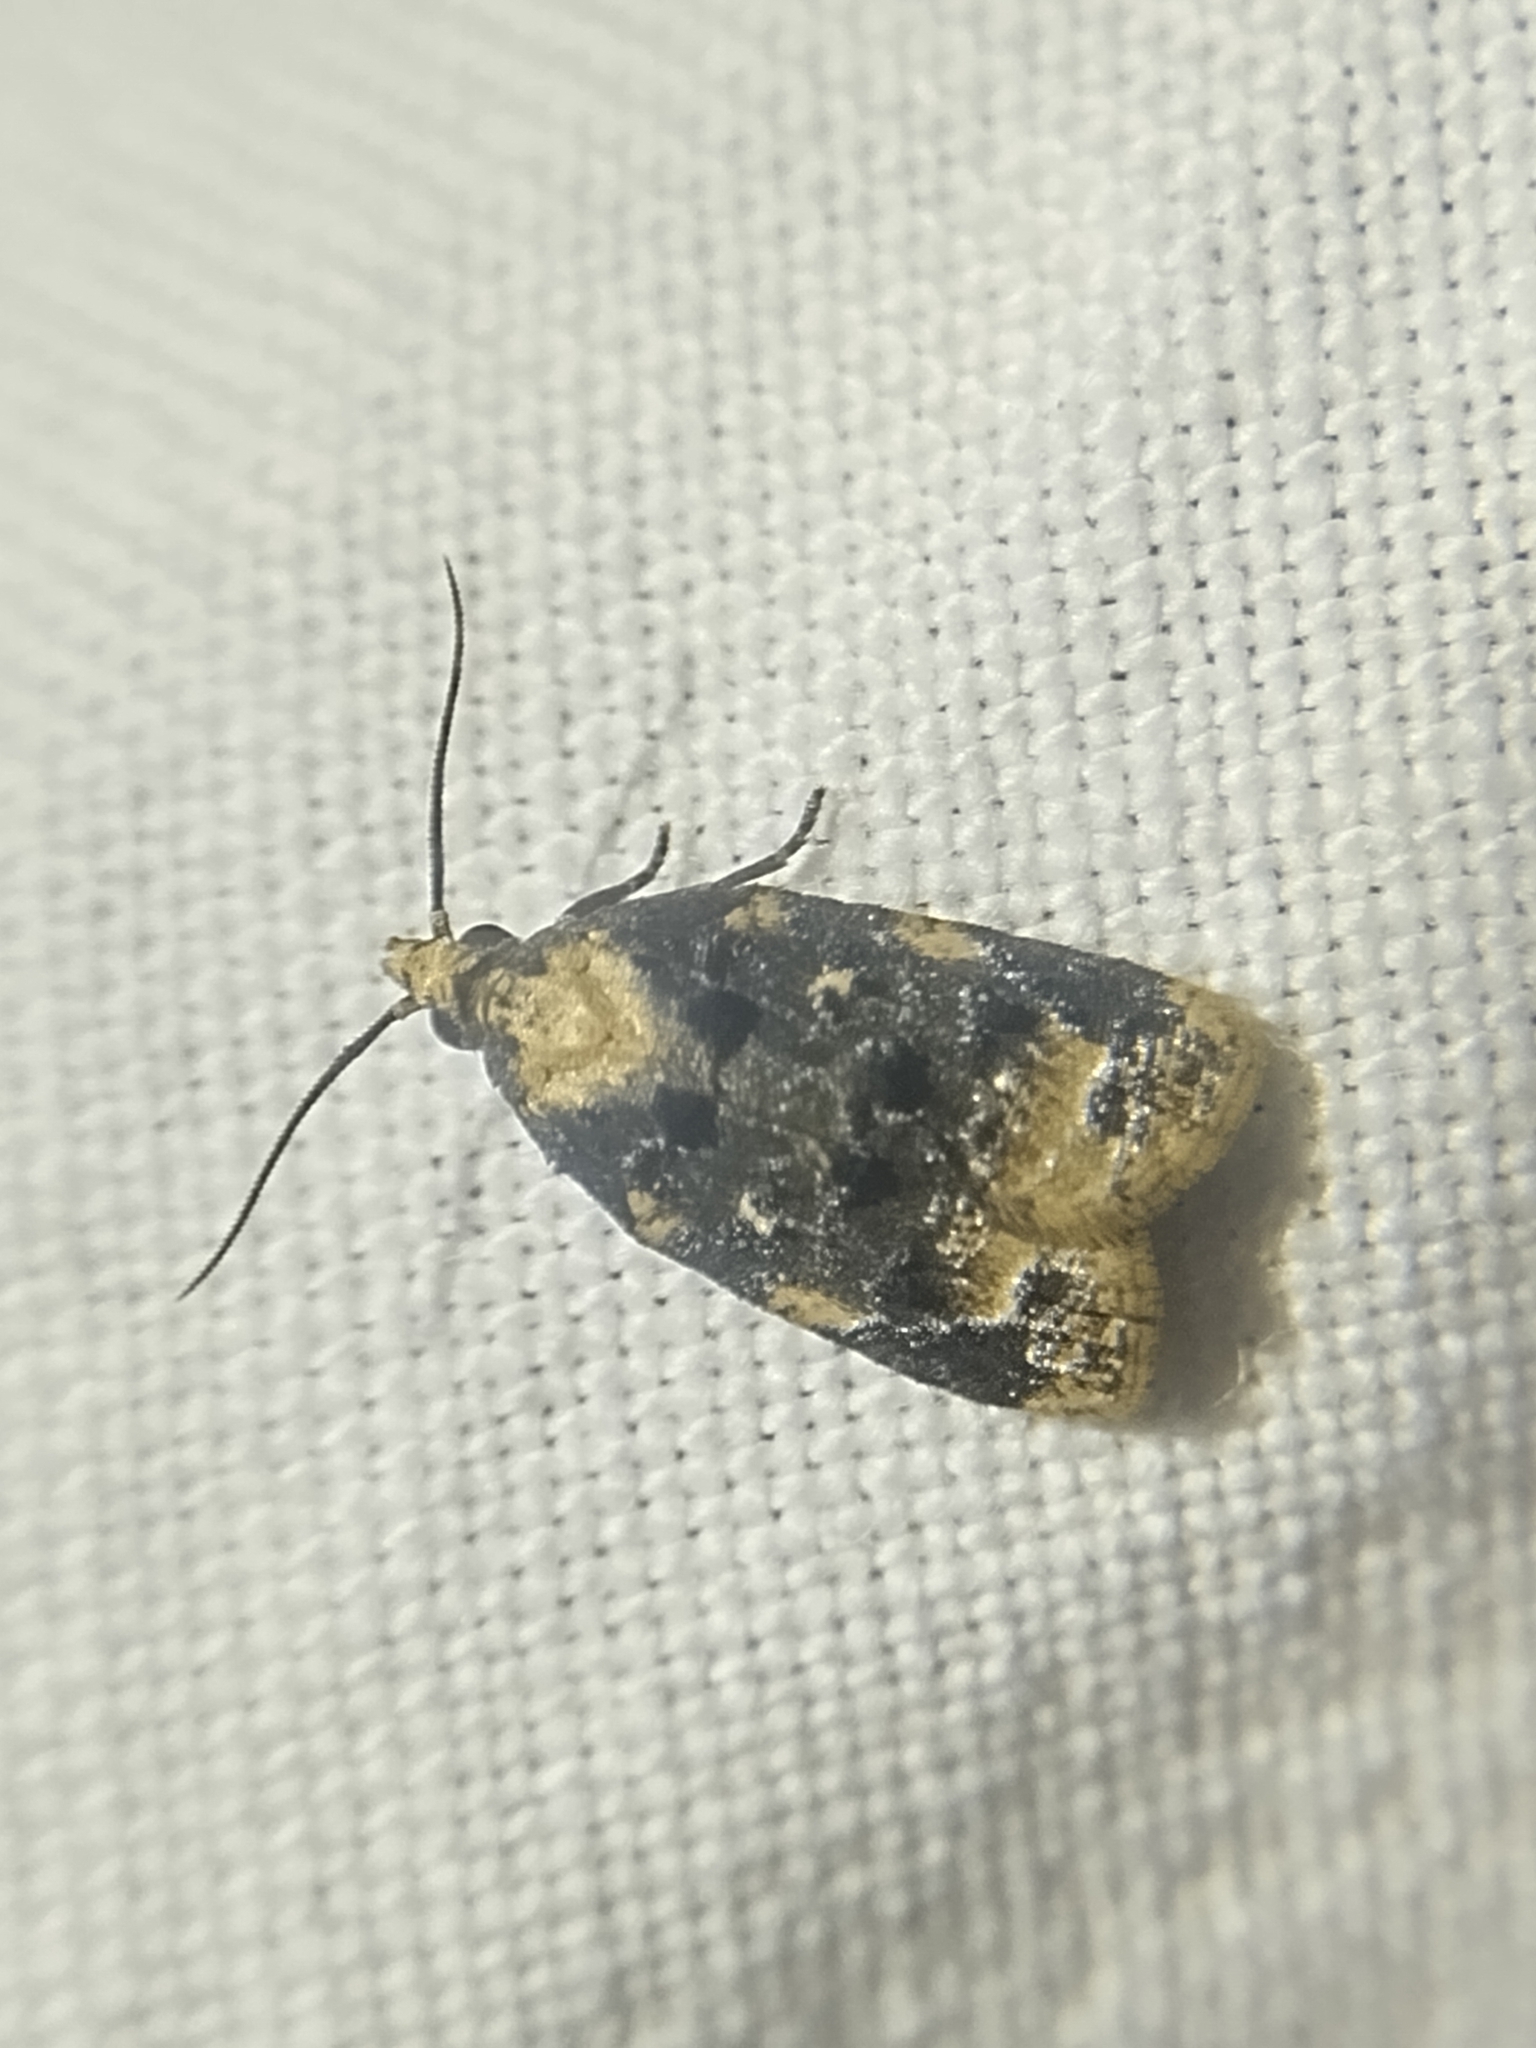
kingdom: Animalia
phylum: Arthropoda
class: Insecta
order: Lepidoptera
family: Tortricidae
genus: Platynota
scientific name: Platynota exasperatana
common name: Exasperating platynota moth
